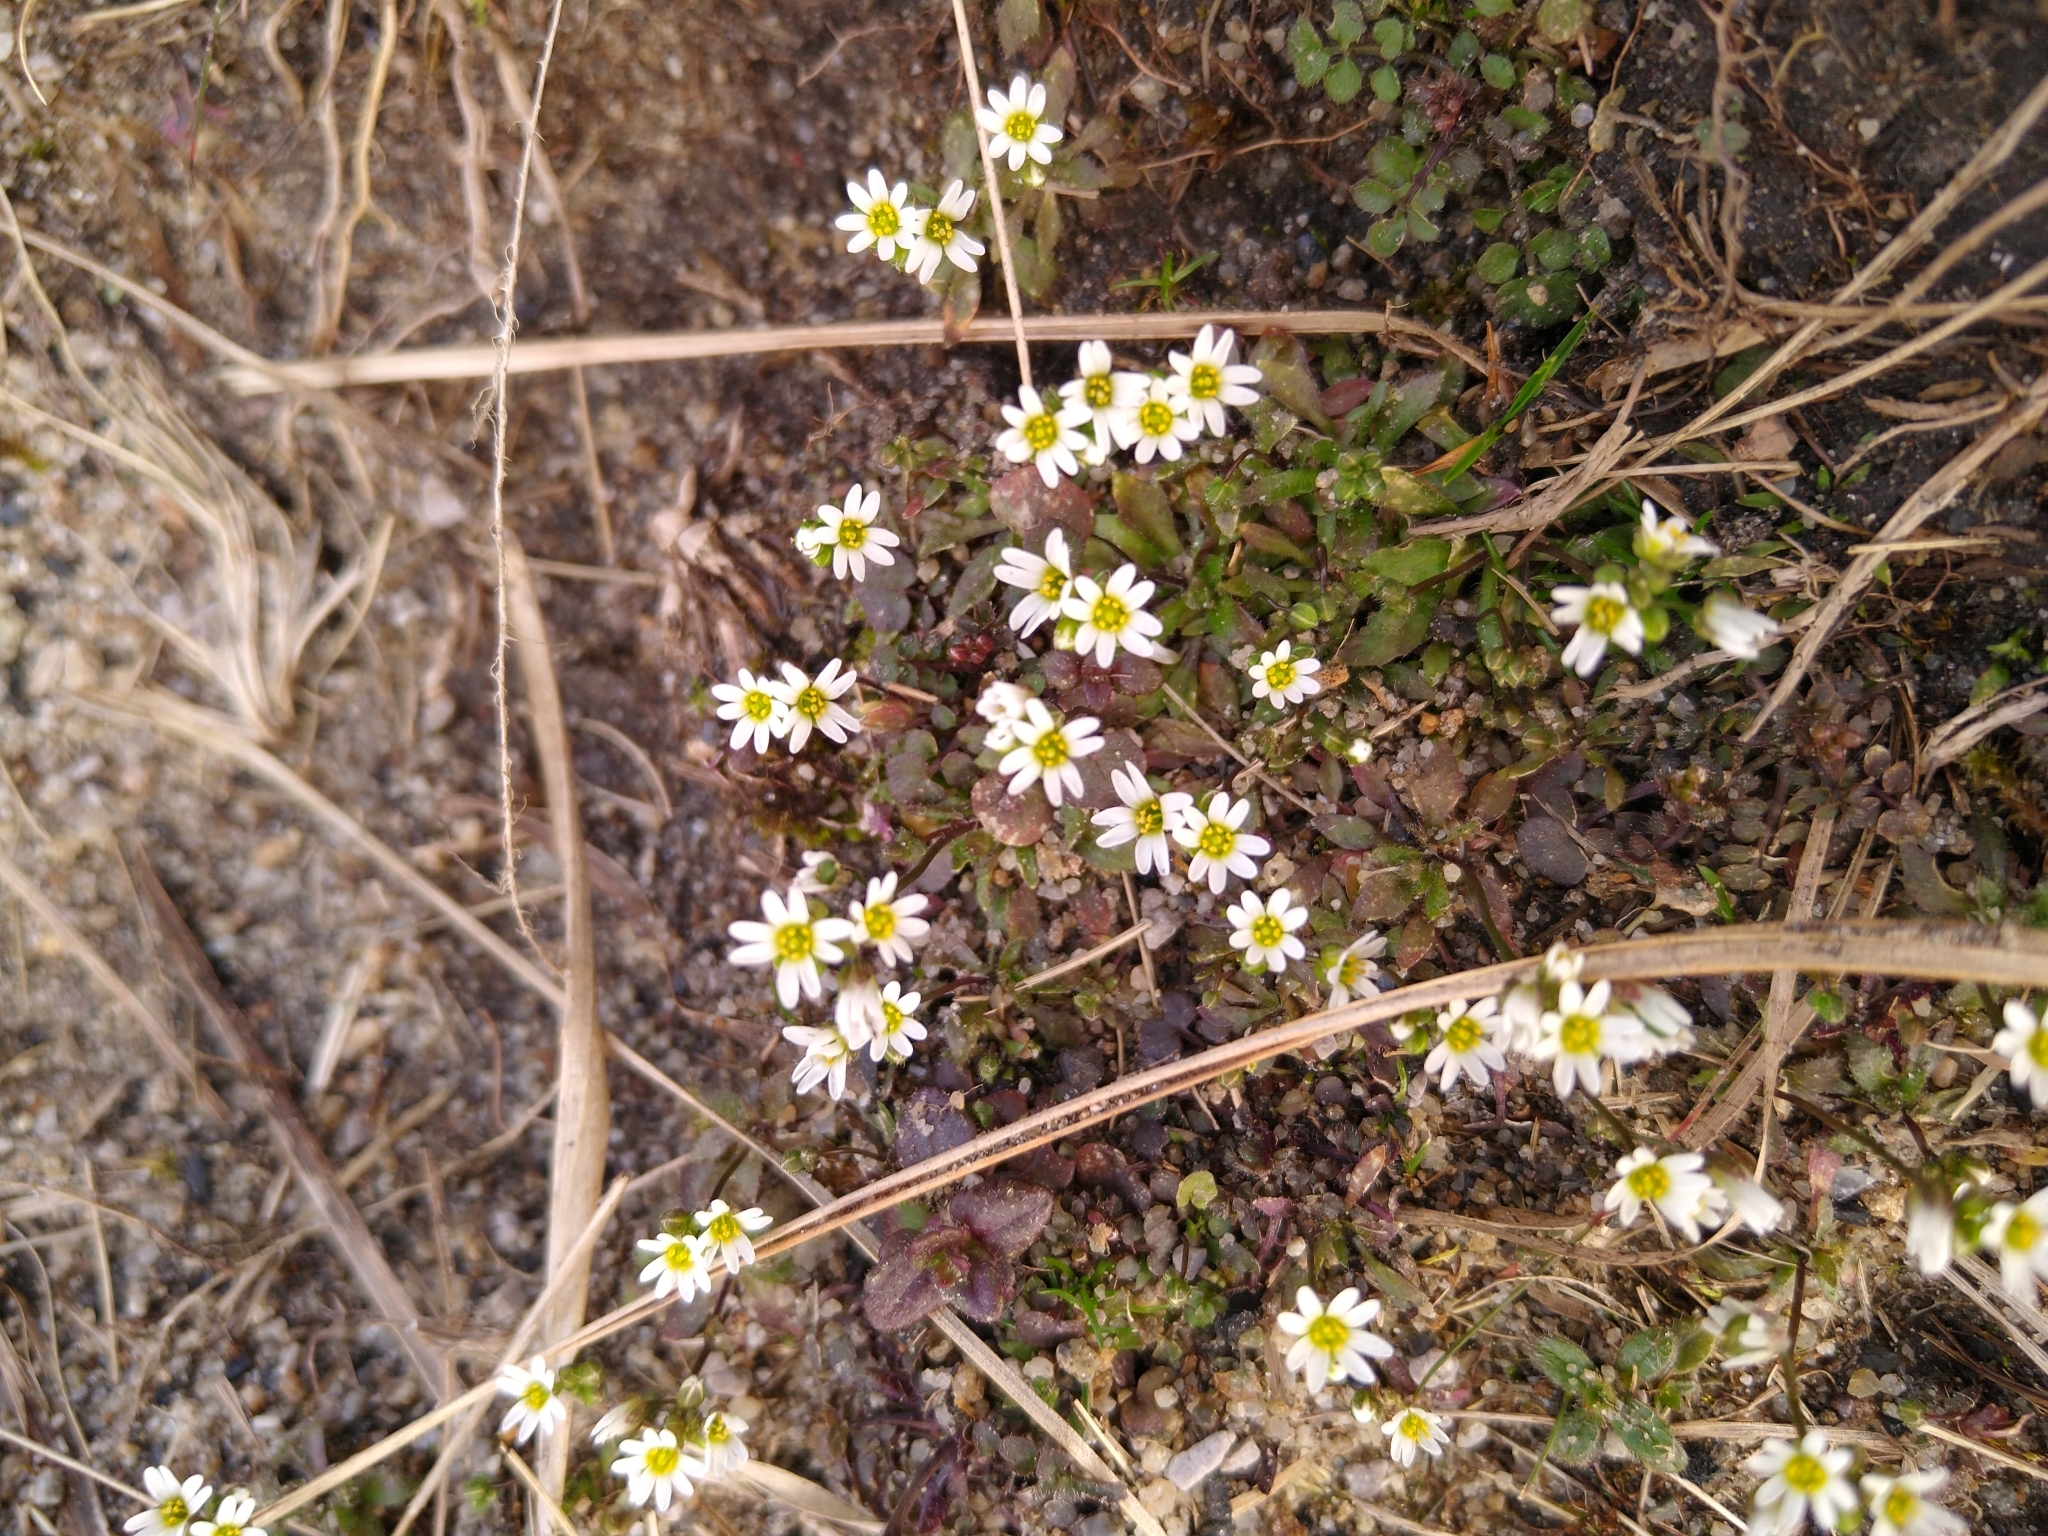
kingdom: Plantae
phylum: Tracheophyta
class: Magnoliopsida
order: Brassicales
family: Brassicaceae
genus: Draba
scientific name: Draba verna
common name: Spring draba
